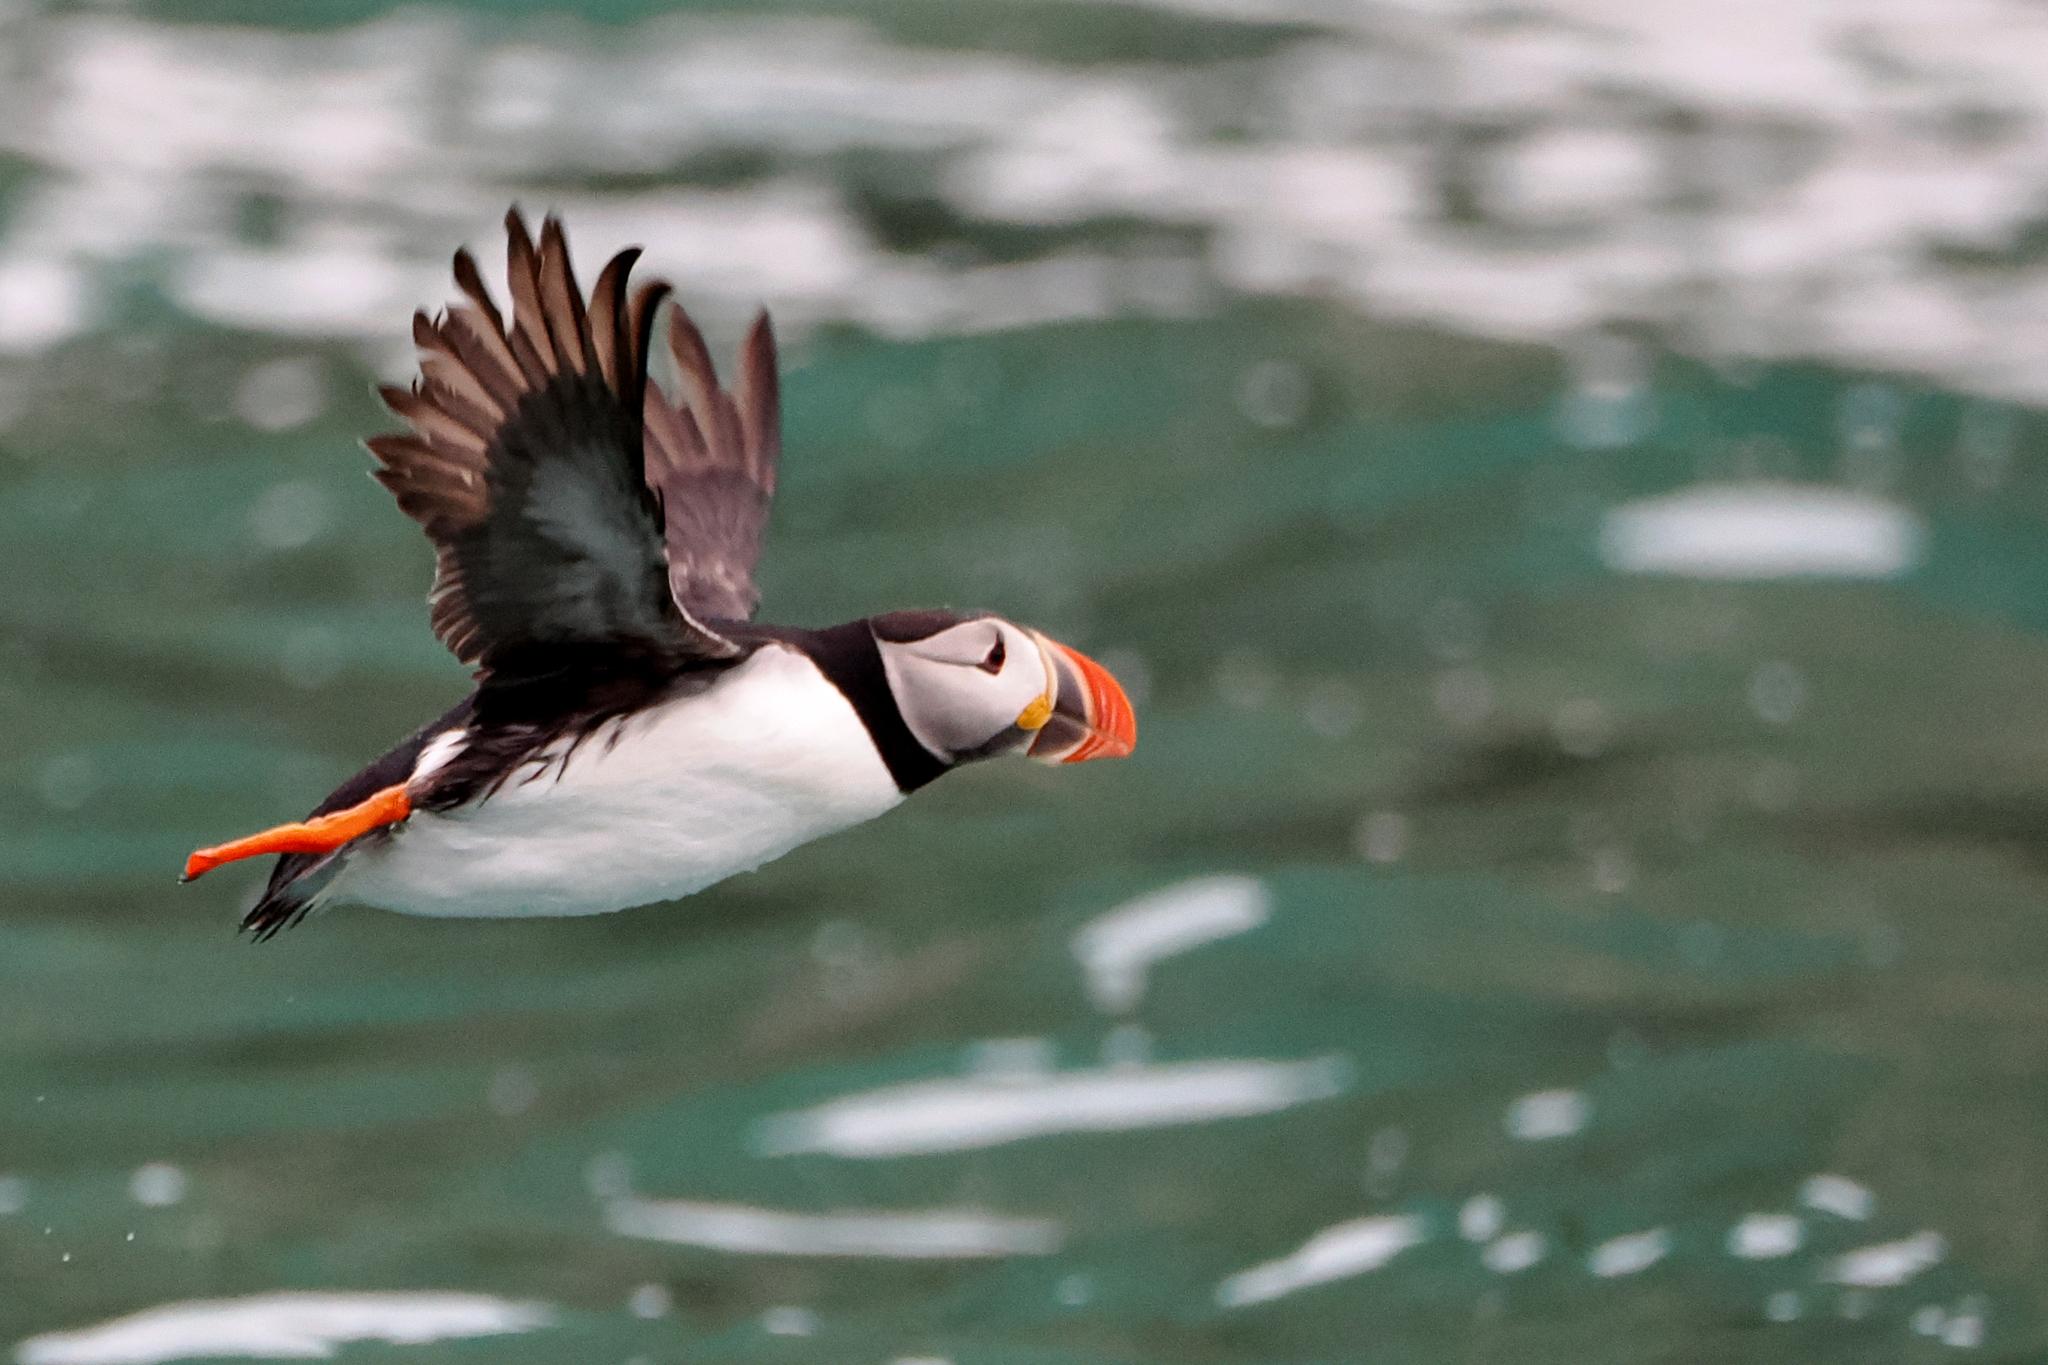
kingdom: Animalia
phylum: Chordata
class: Aves
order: Charadriiformes
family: Alcidae
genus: Fratercula
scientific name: Fratercula arctica
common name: Atlantic puffin
